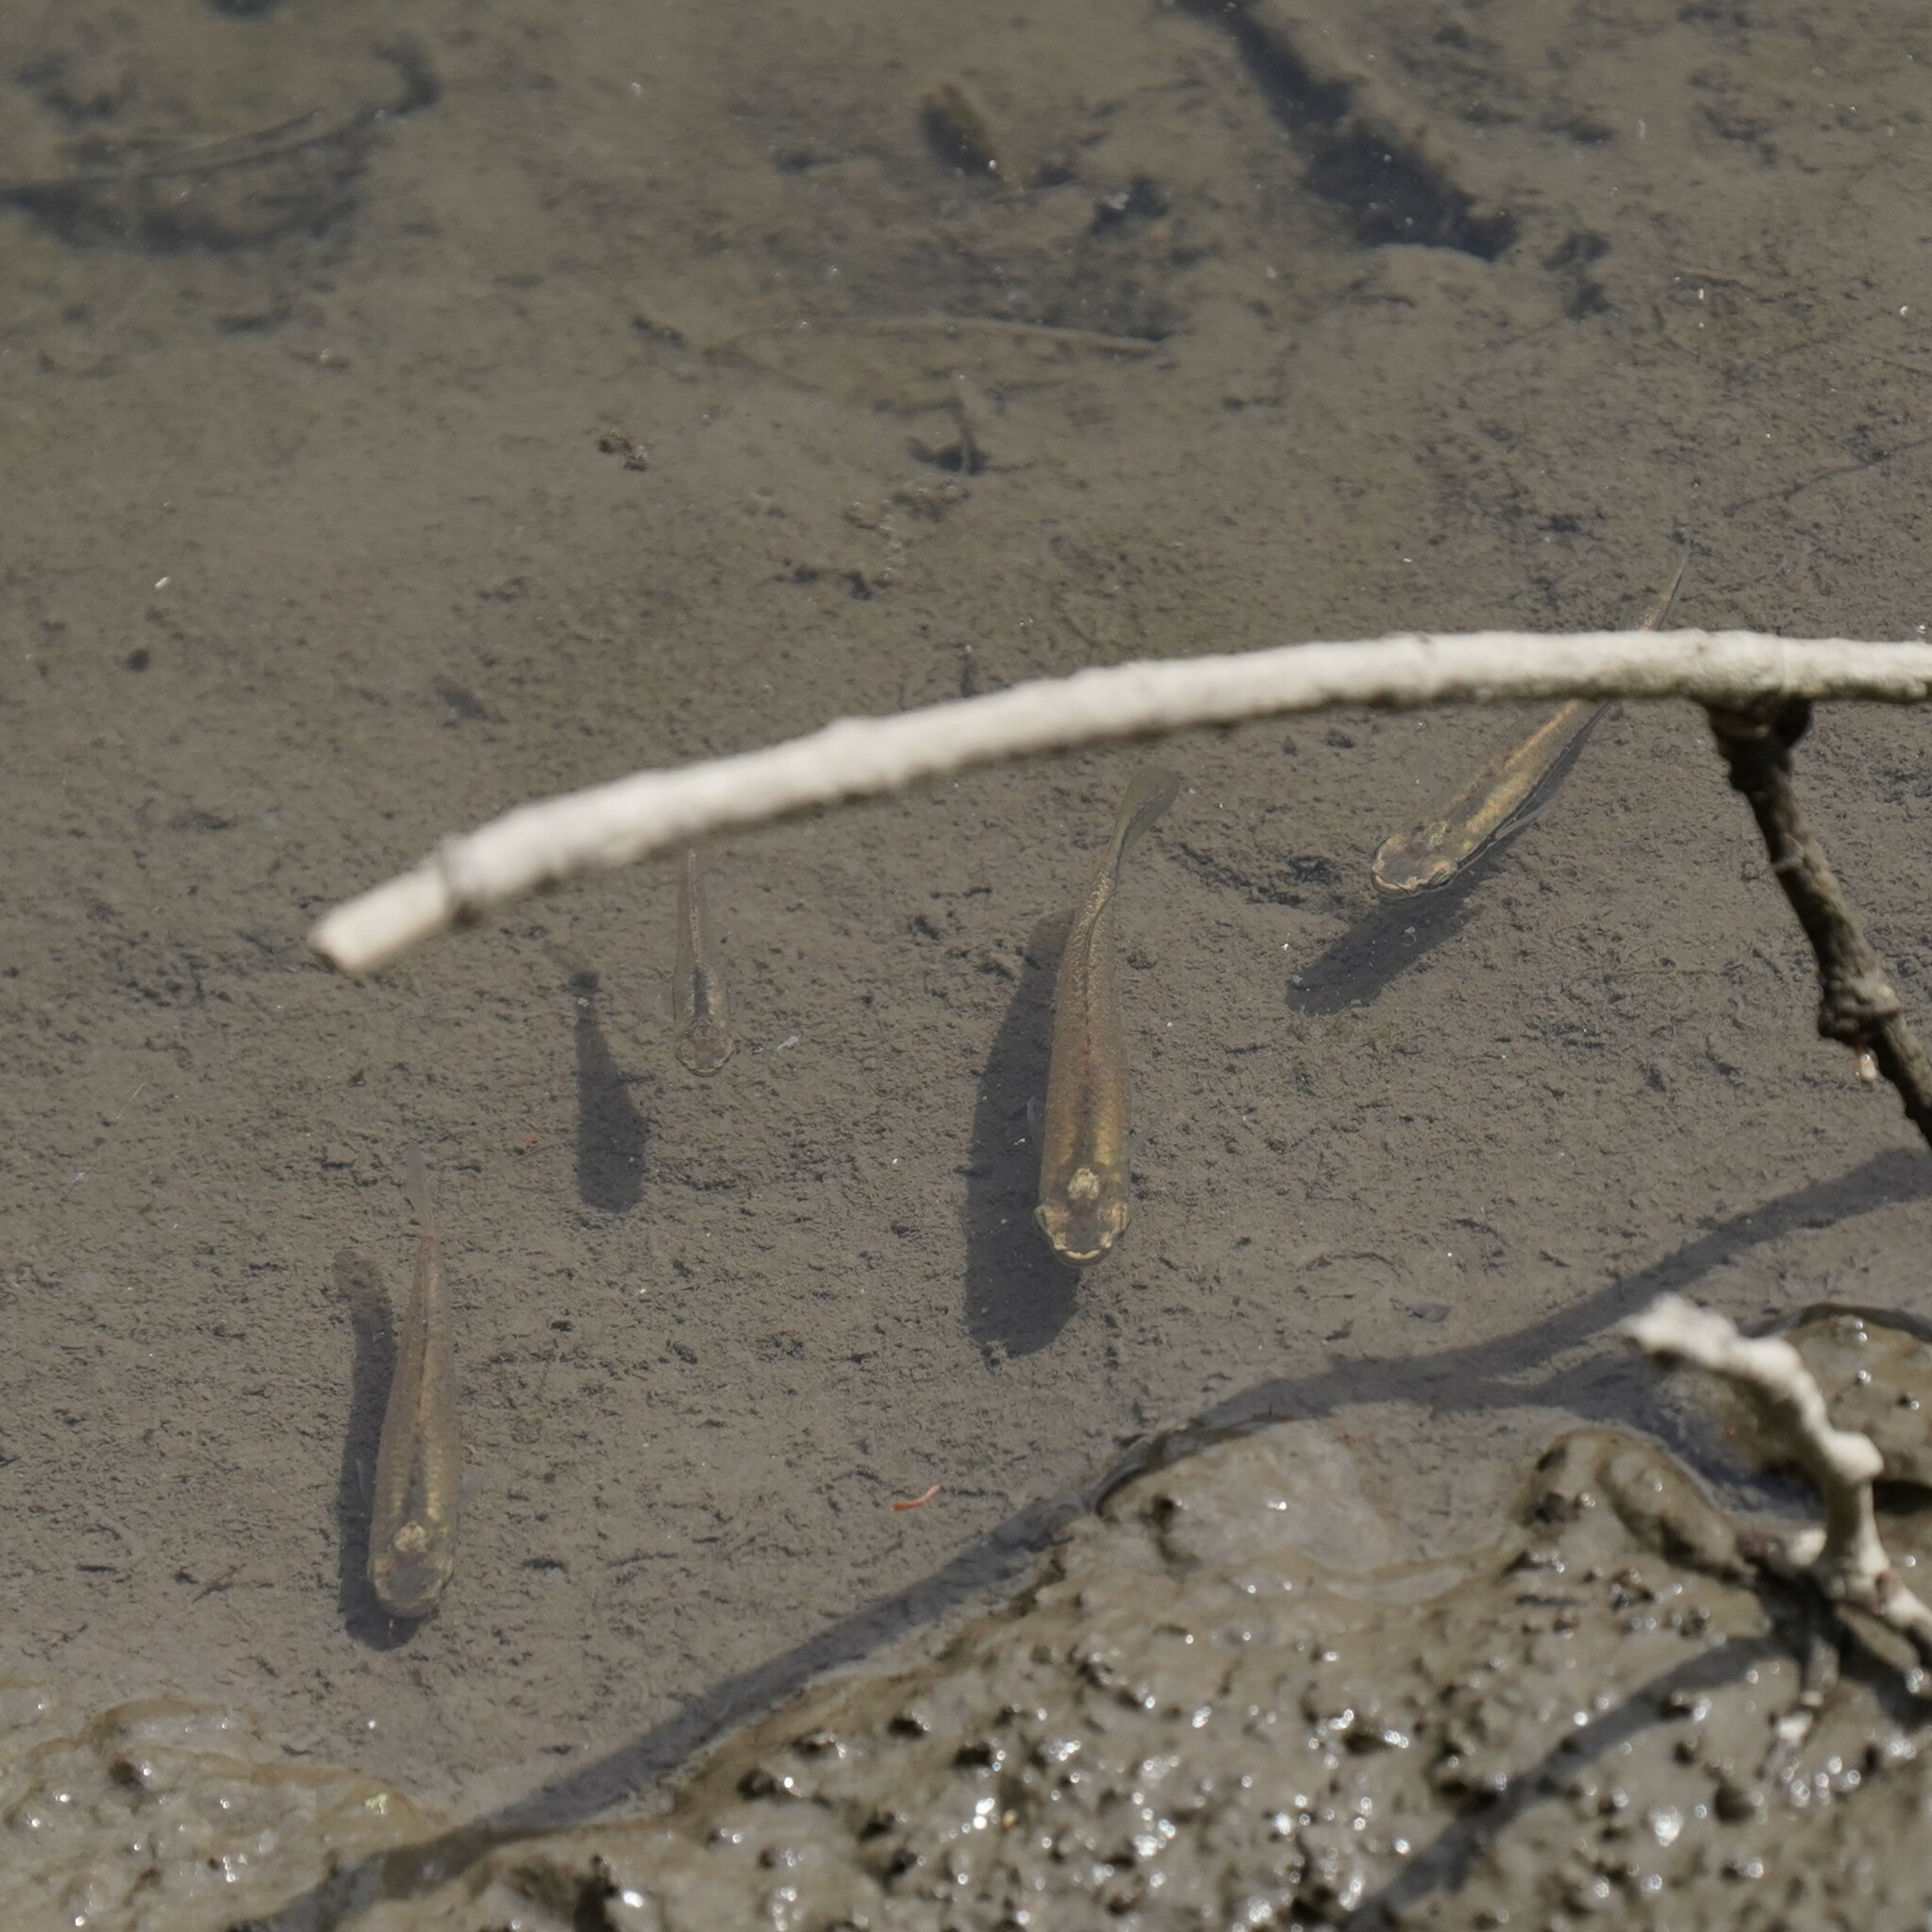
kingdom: Animalia
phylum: Chordata
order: Cyprinodontiformes
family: Fundulidae
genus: Fundulus
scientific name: Fundulus notatus
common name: Blackstripe topminnow
